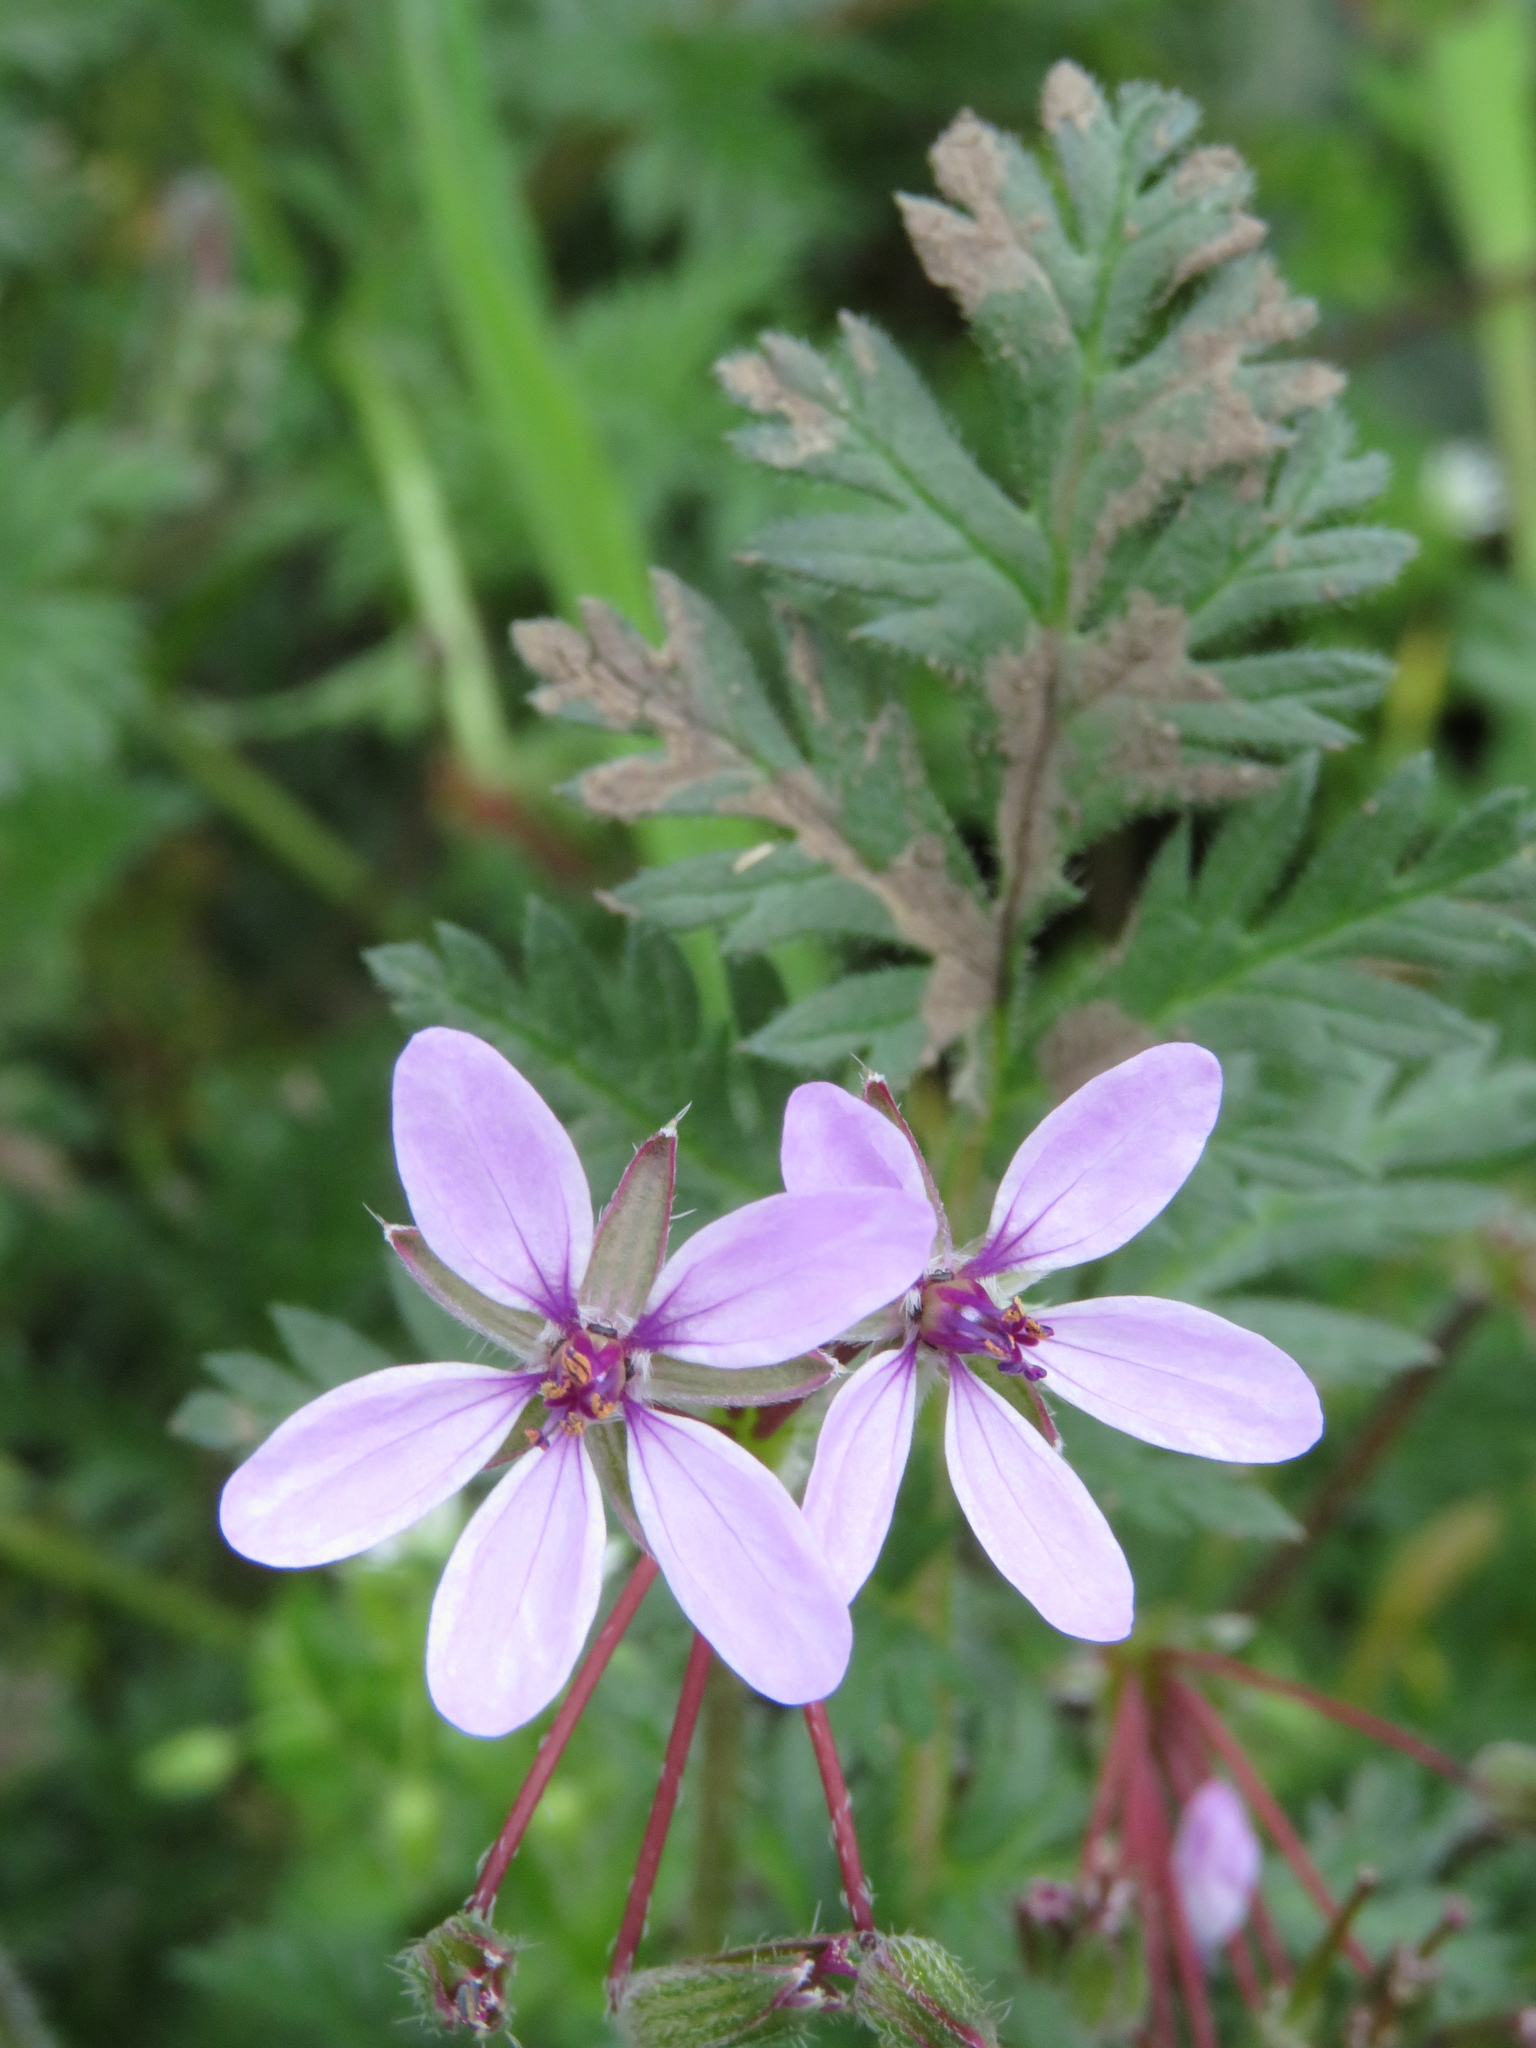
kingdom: Plantae
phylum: Tracheophyta
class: Magnoliopsida
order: Geraniales
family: Geraniaceae
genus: Erodium
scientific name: Erodium cicutarium
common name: Common stork's-bill
